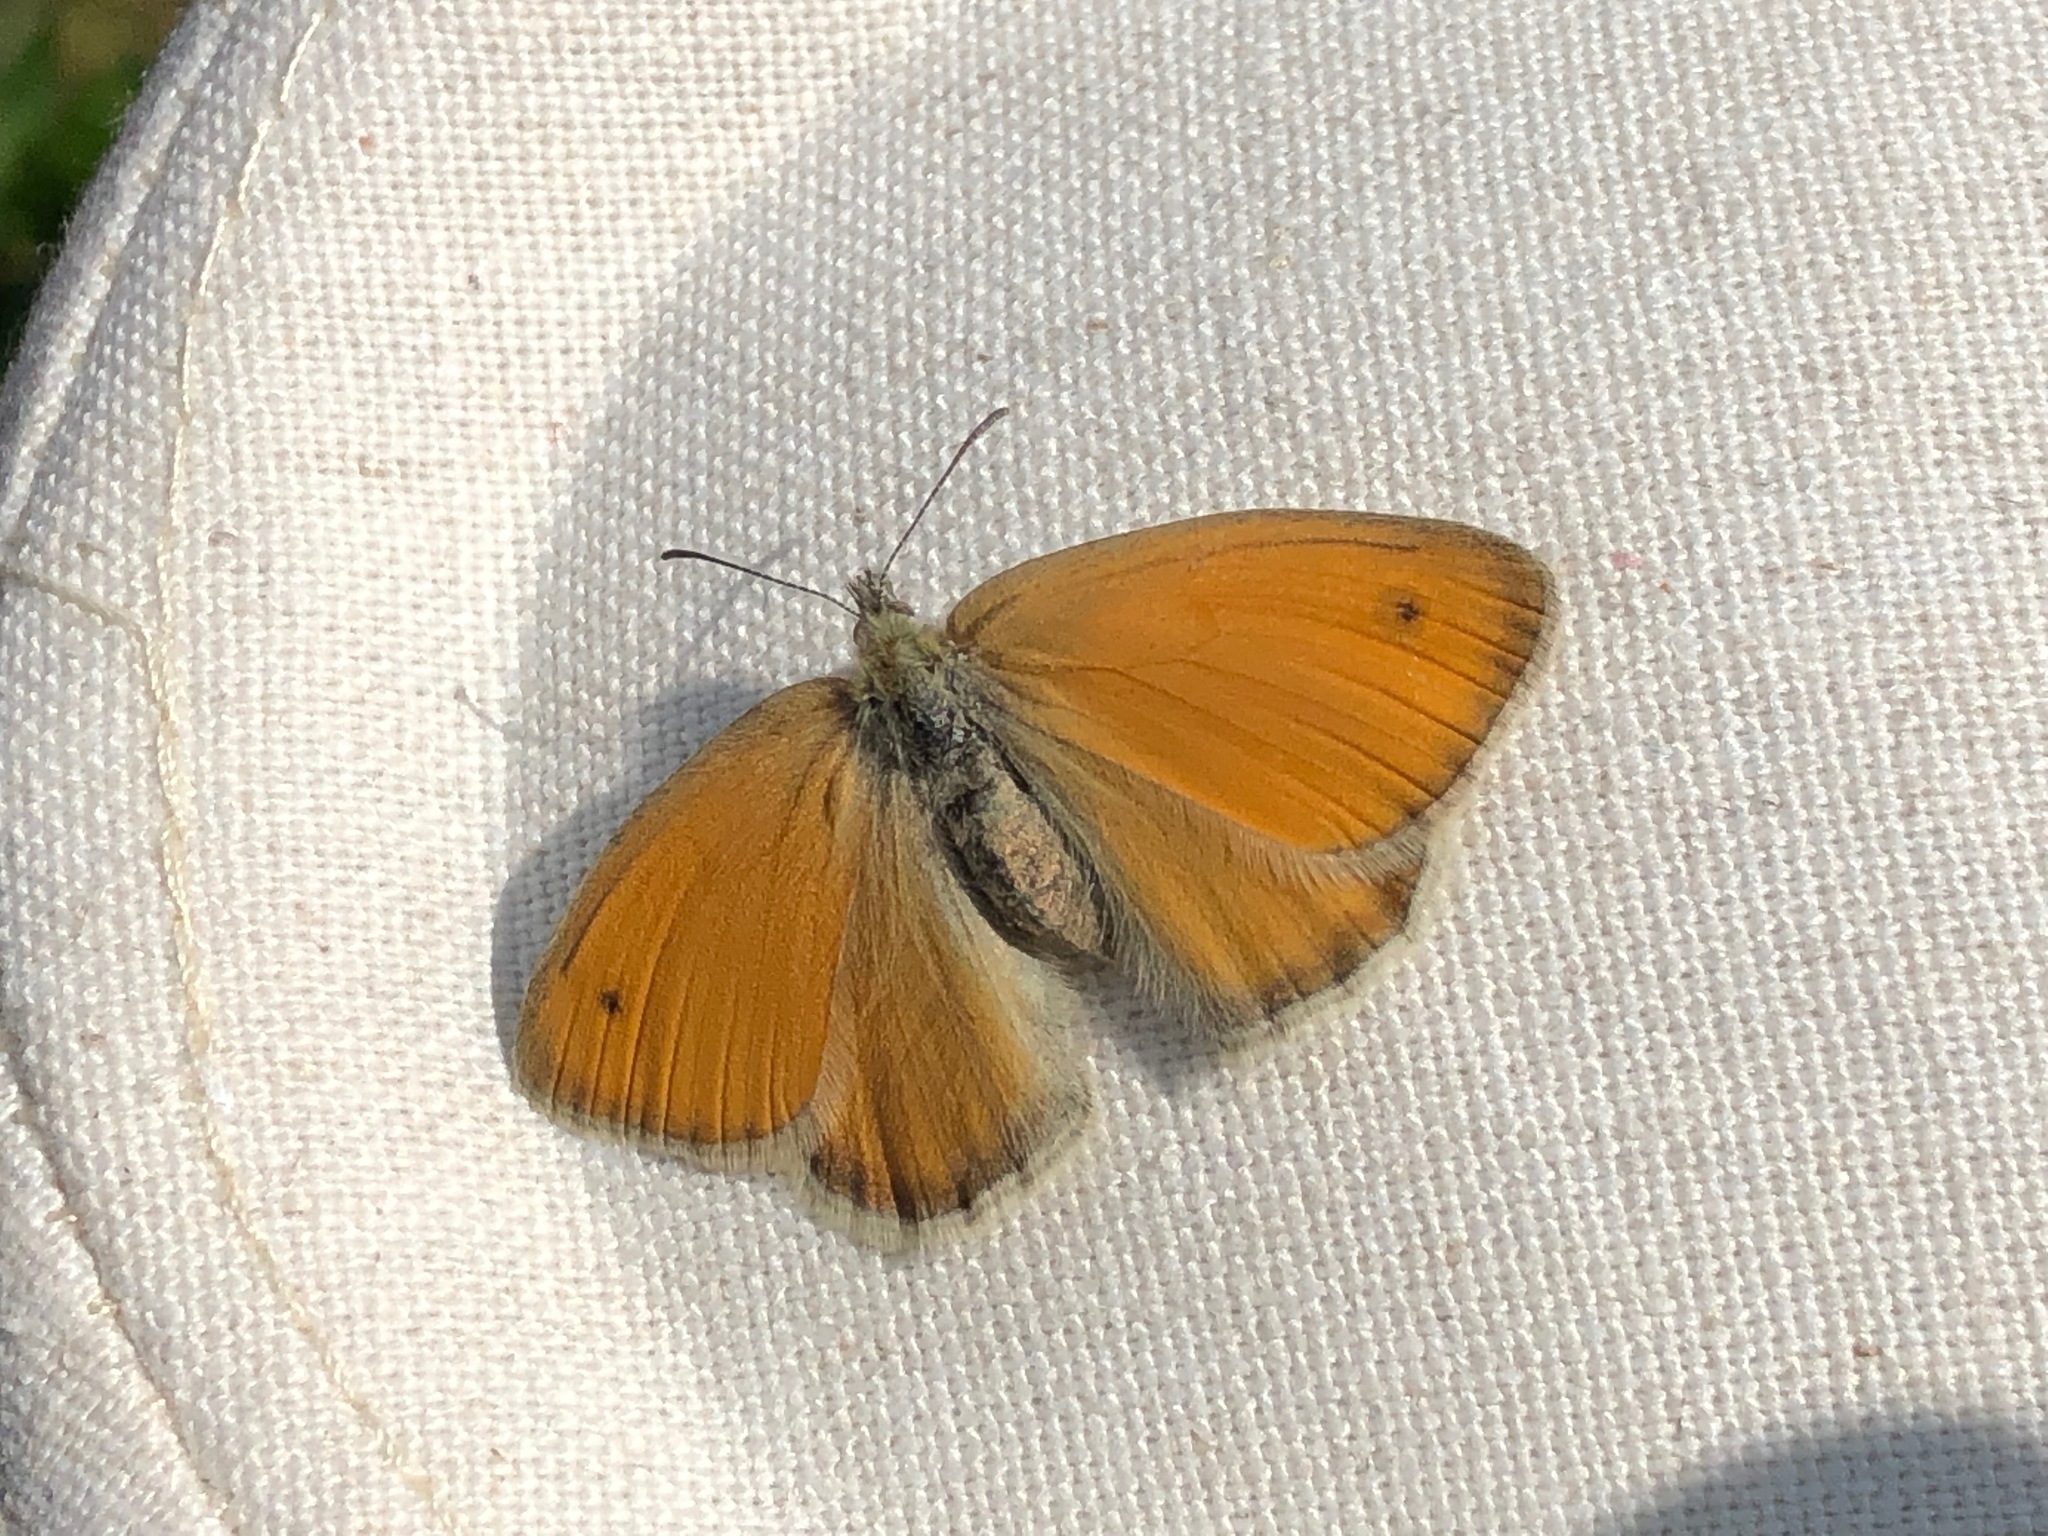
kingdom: Animalia
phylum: Arthropoda
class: Insecta
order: Lepidoptera
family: Nymphalidae
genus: Coenonympha
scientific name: Coenonympha pamphilus
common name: Small heath
